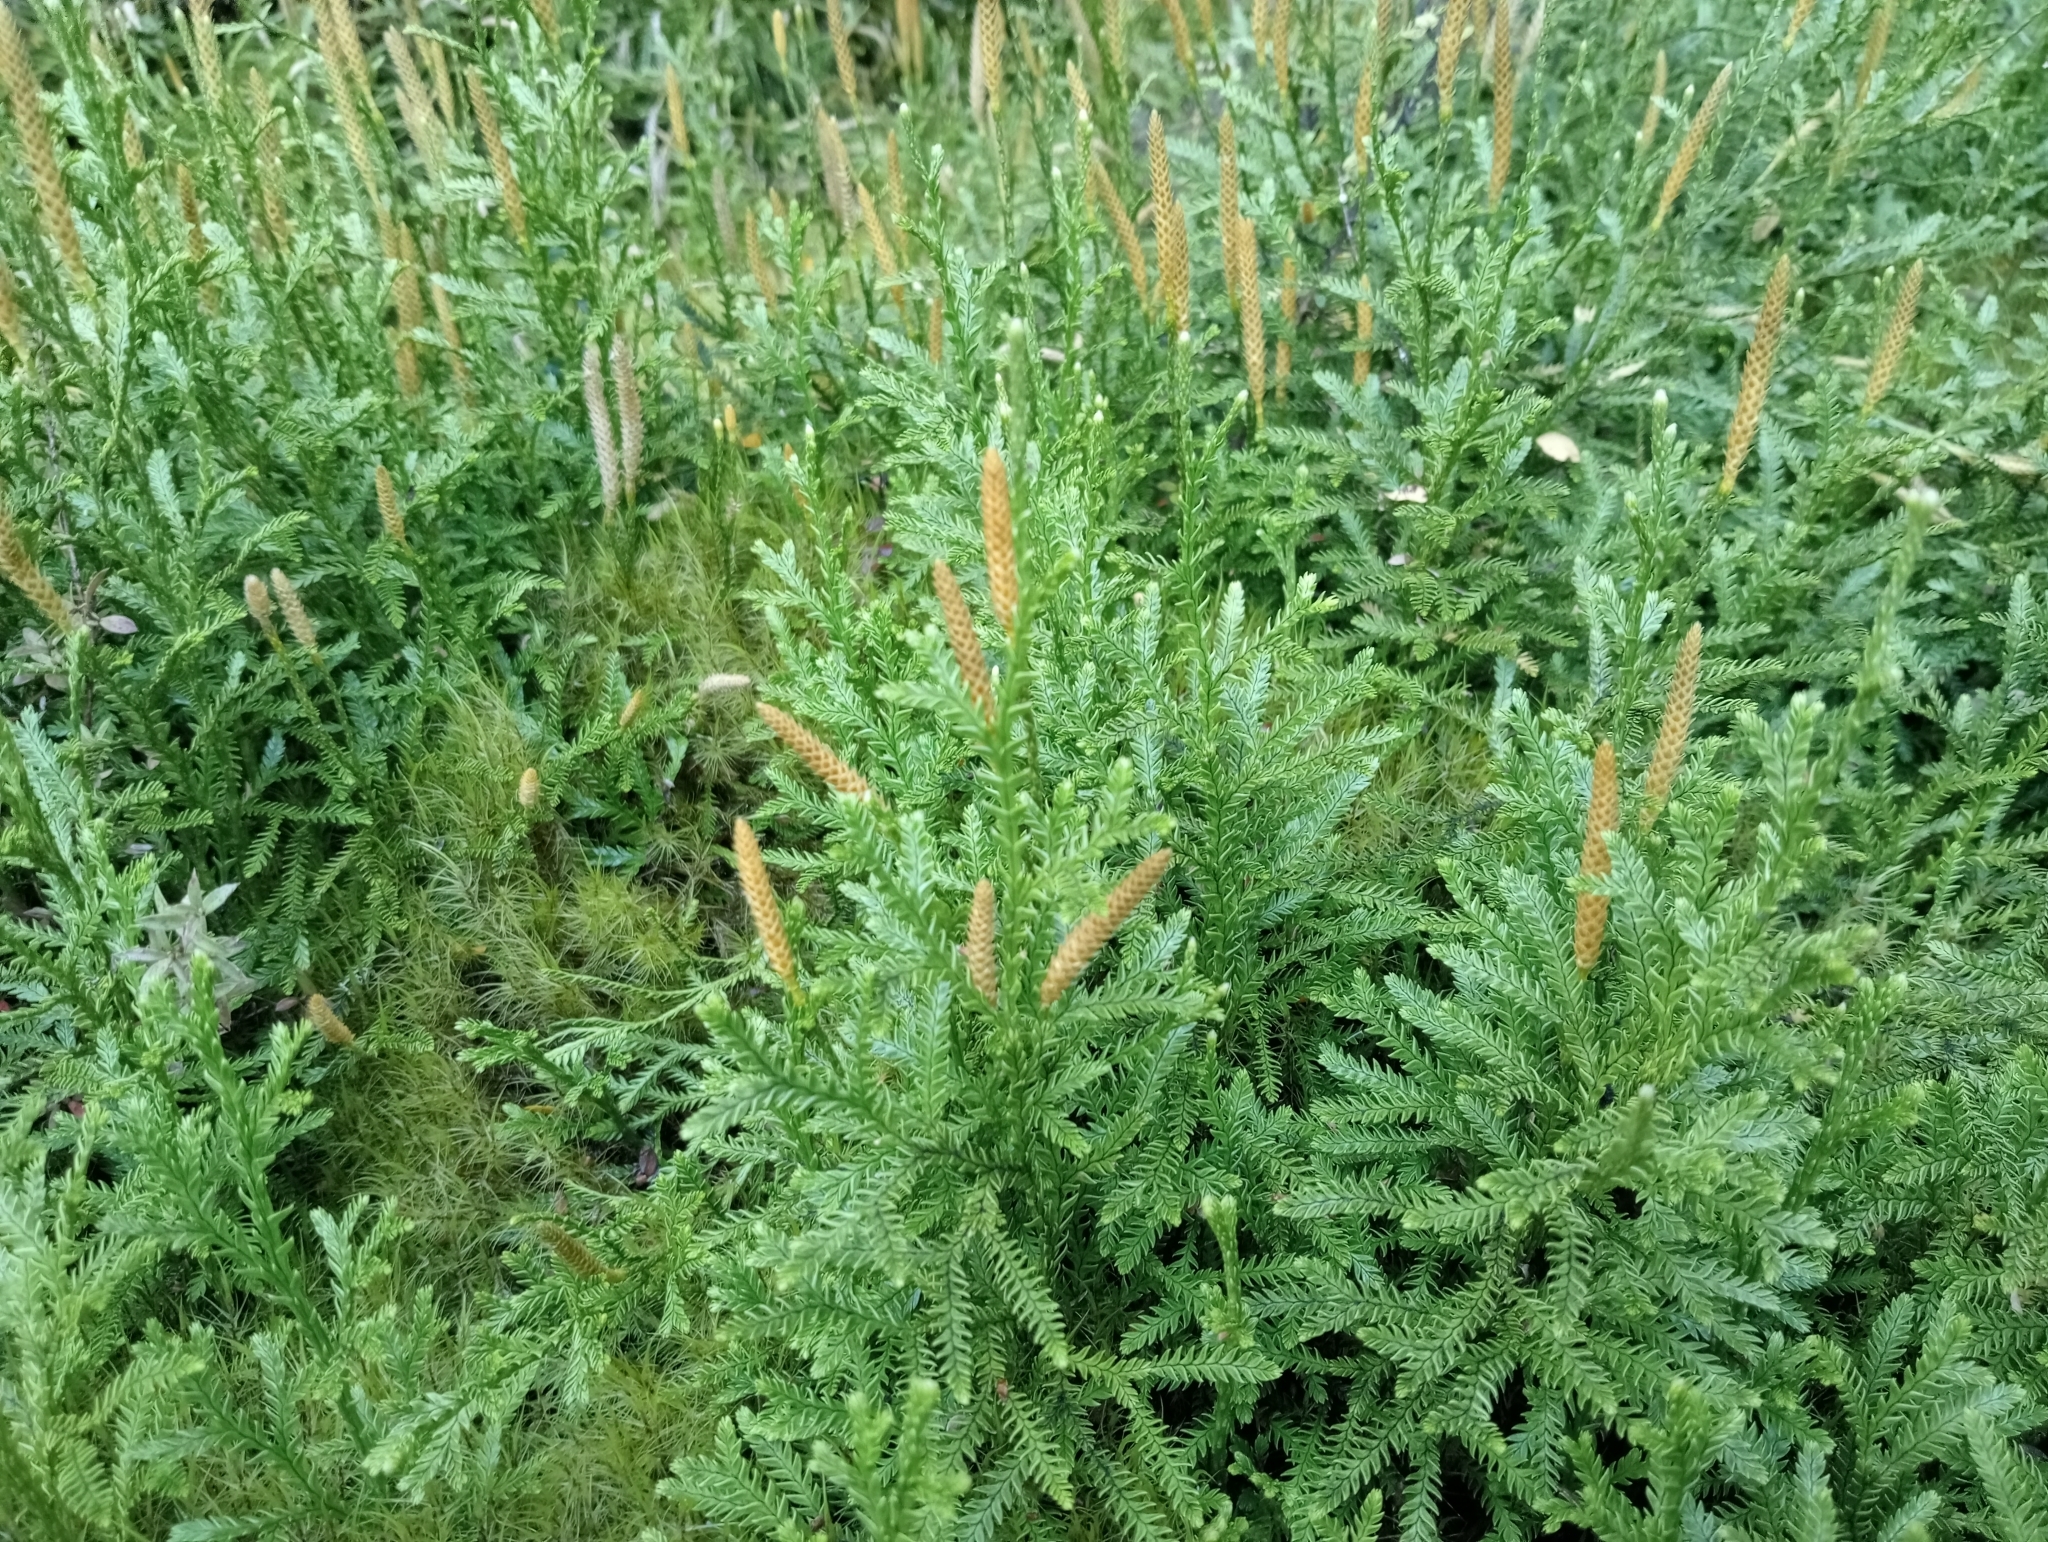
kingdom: Plantae
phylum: Tracheophyta
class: Lycopodiopsida
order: Lycopodiales
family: Lycopodiaceae
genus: Diphasium
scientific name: Diphasium scariosum
